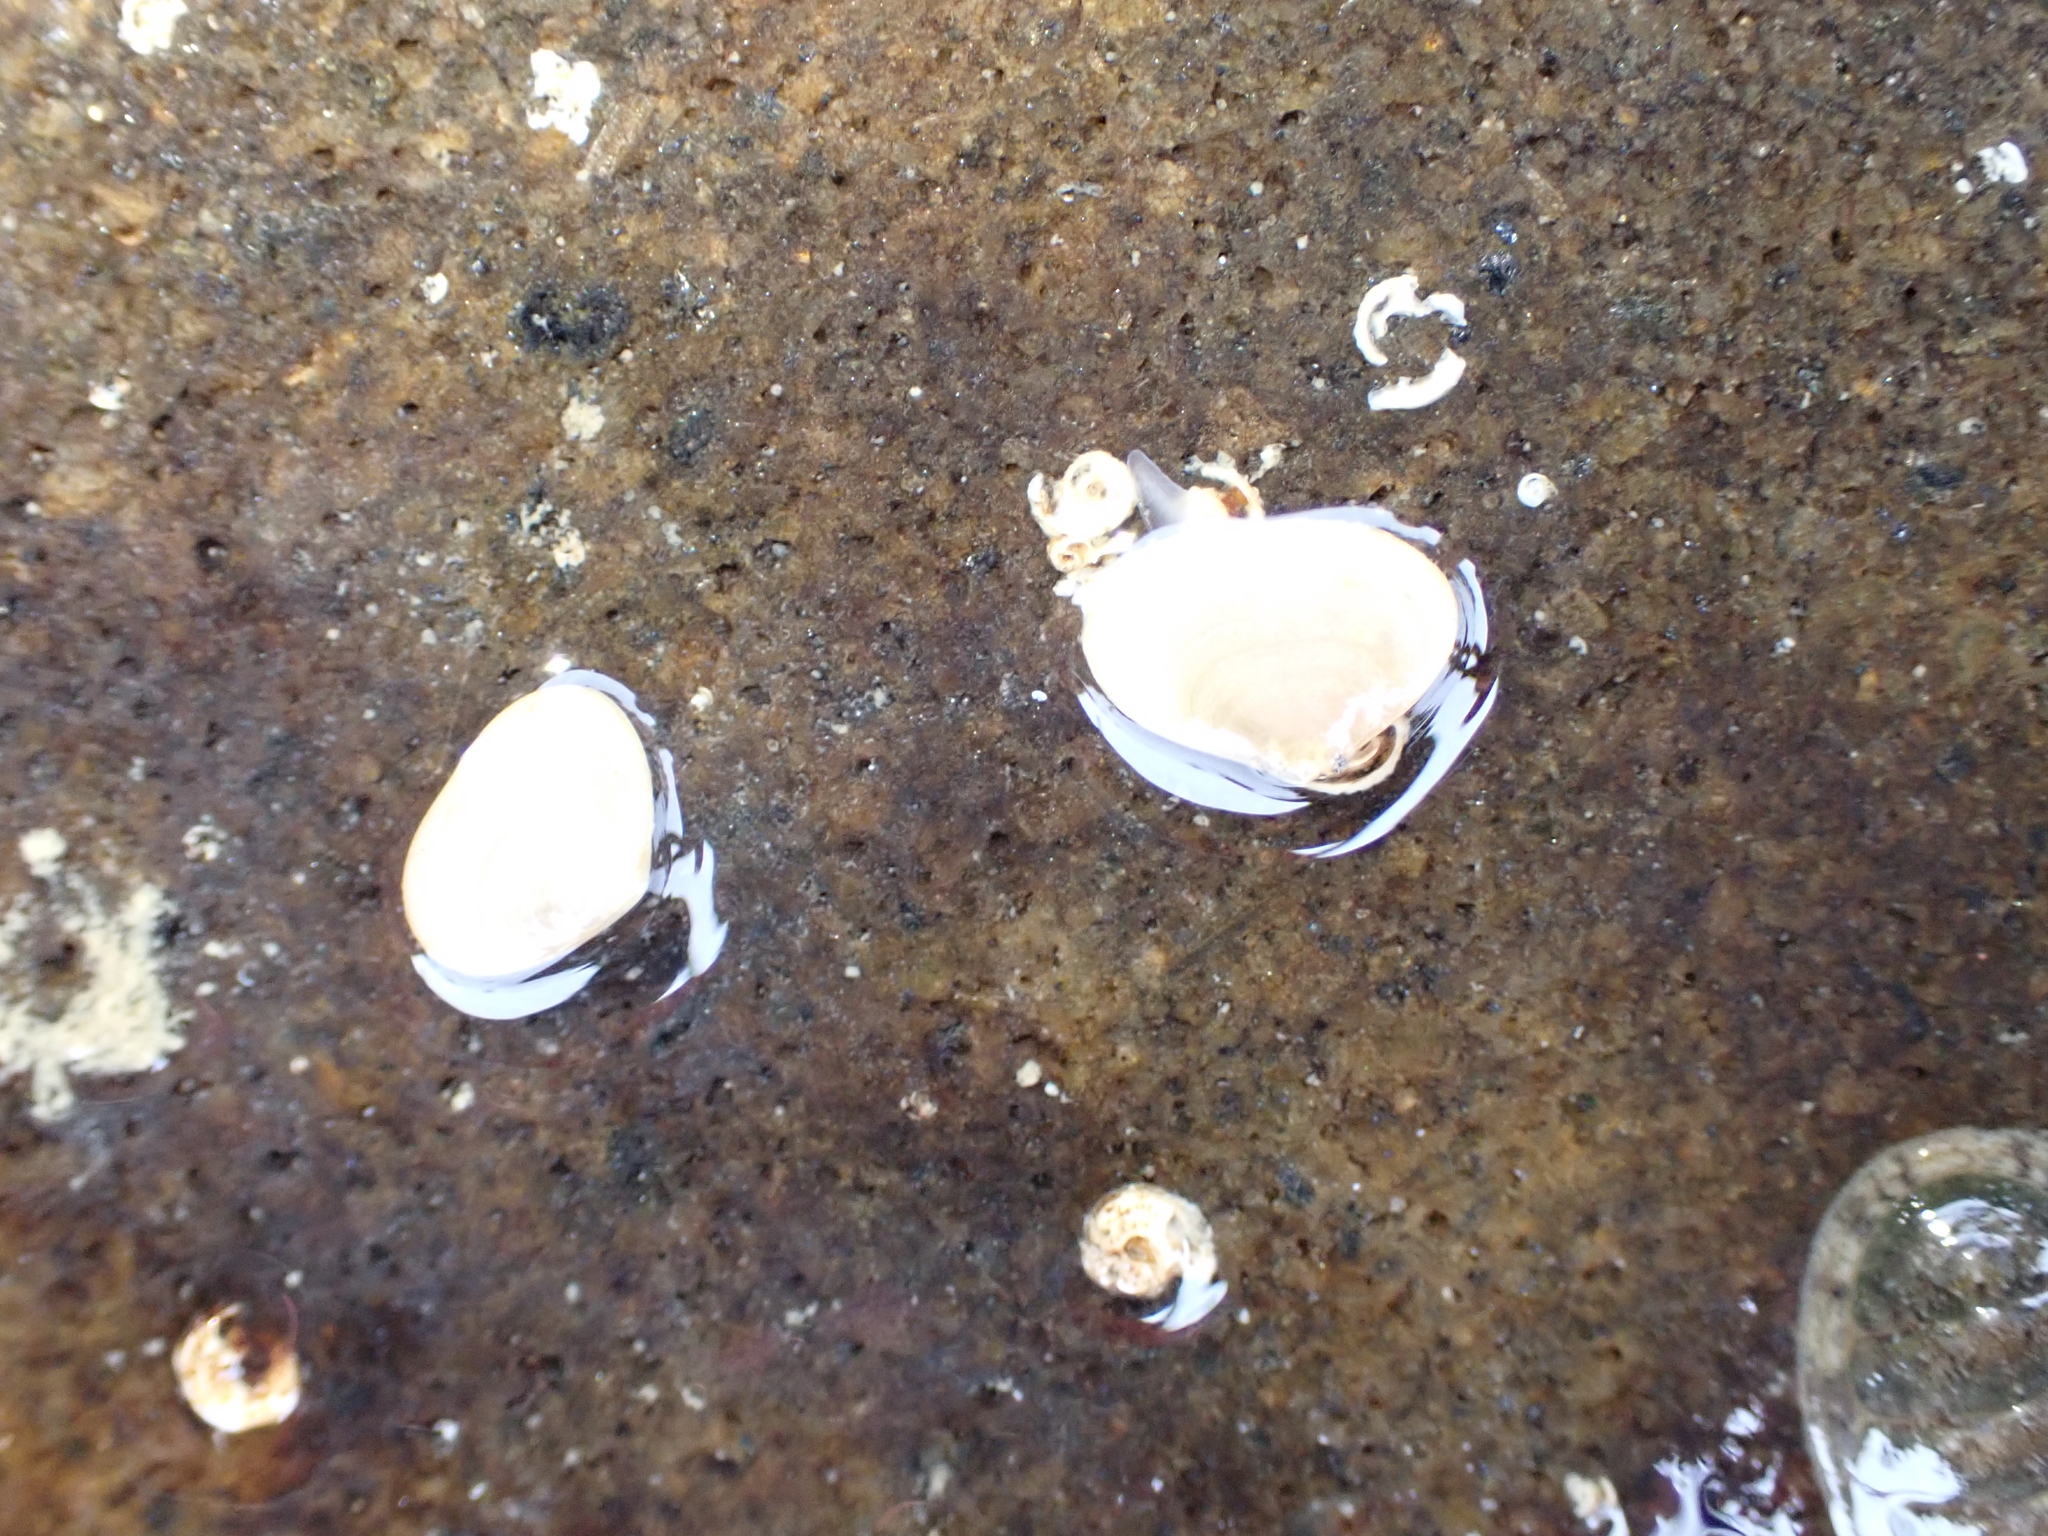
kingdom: Animalia
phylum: Mollusca
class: Bivalvia
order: Galeommatida
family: Lasaeidae
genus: Borniola
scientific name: Borniola reniformis
